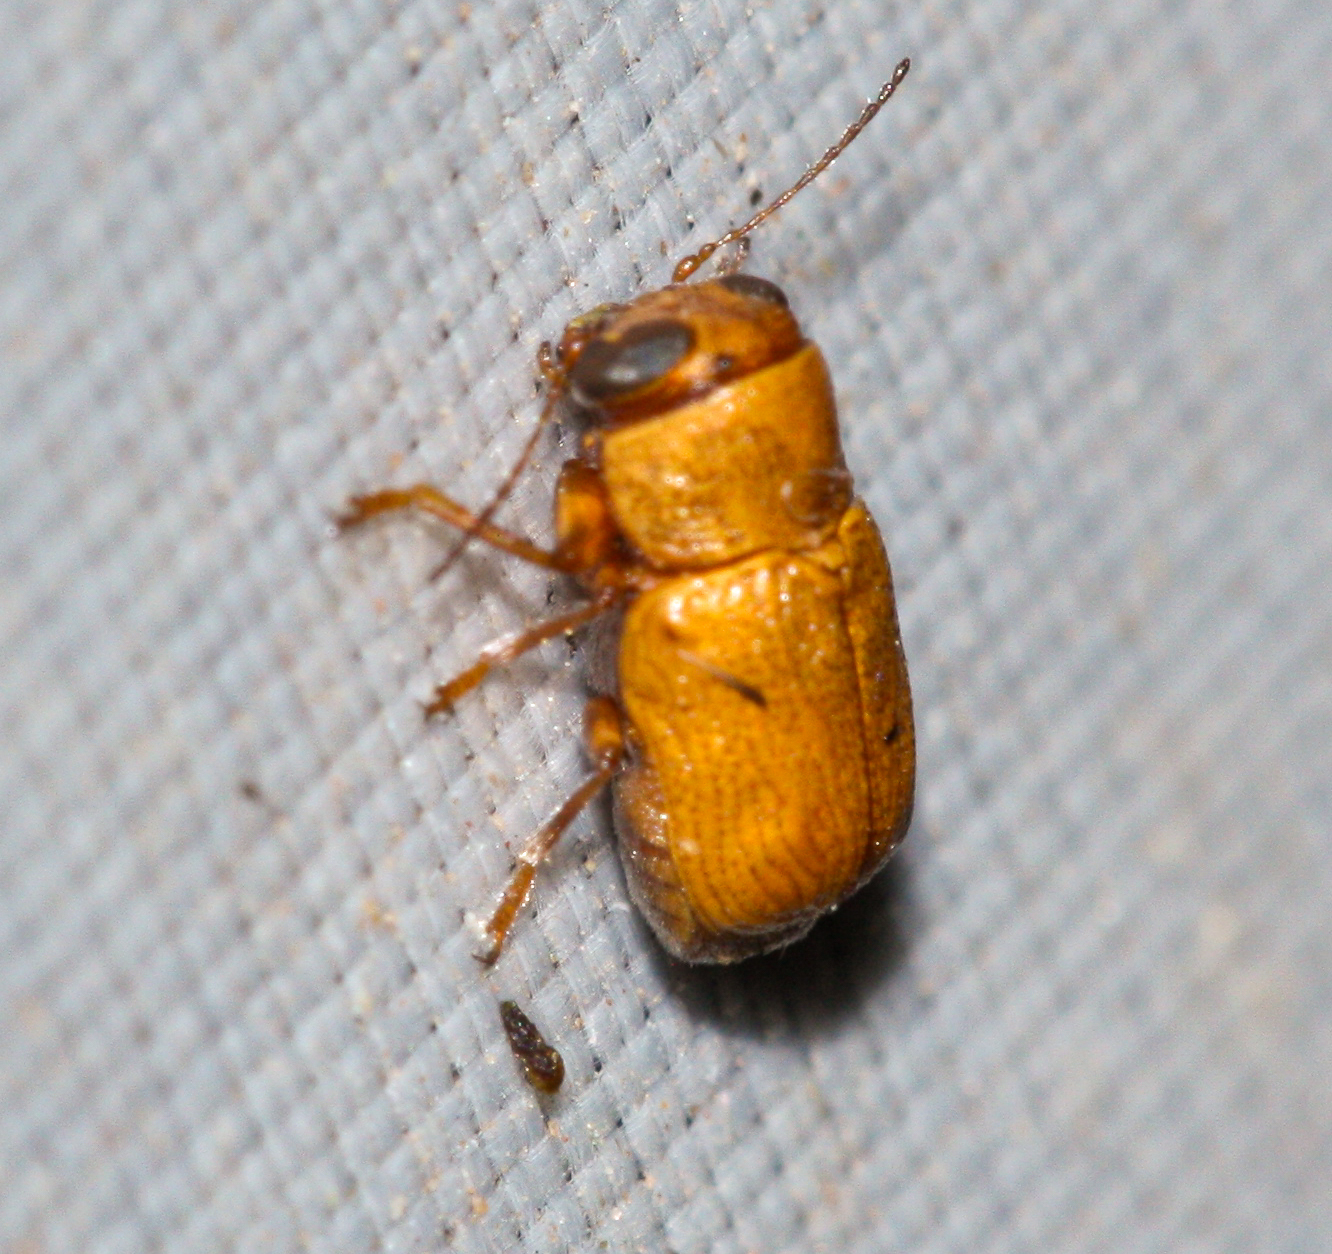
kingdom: Animalia
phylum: Arthropoda
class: Insecta
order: Coleoptera
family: Chrysomelidae
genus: Pachybrachis
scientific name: Pachybrachis mellitus
